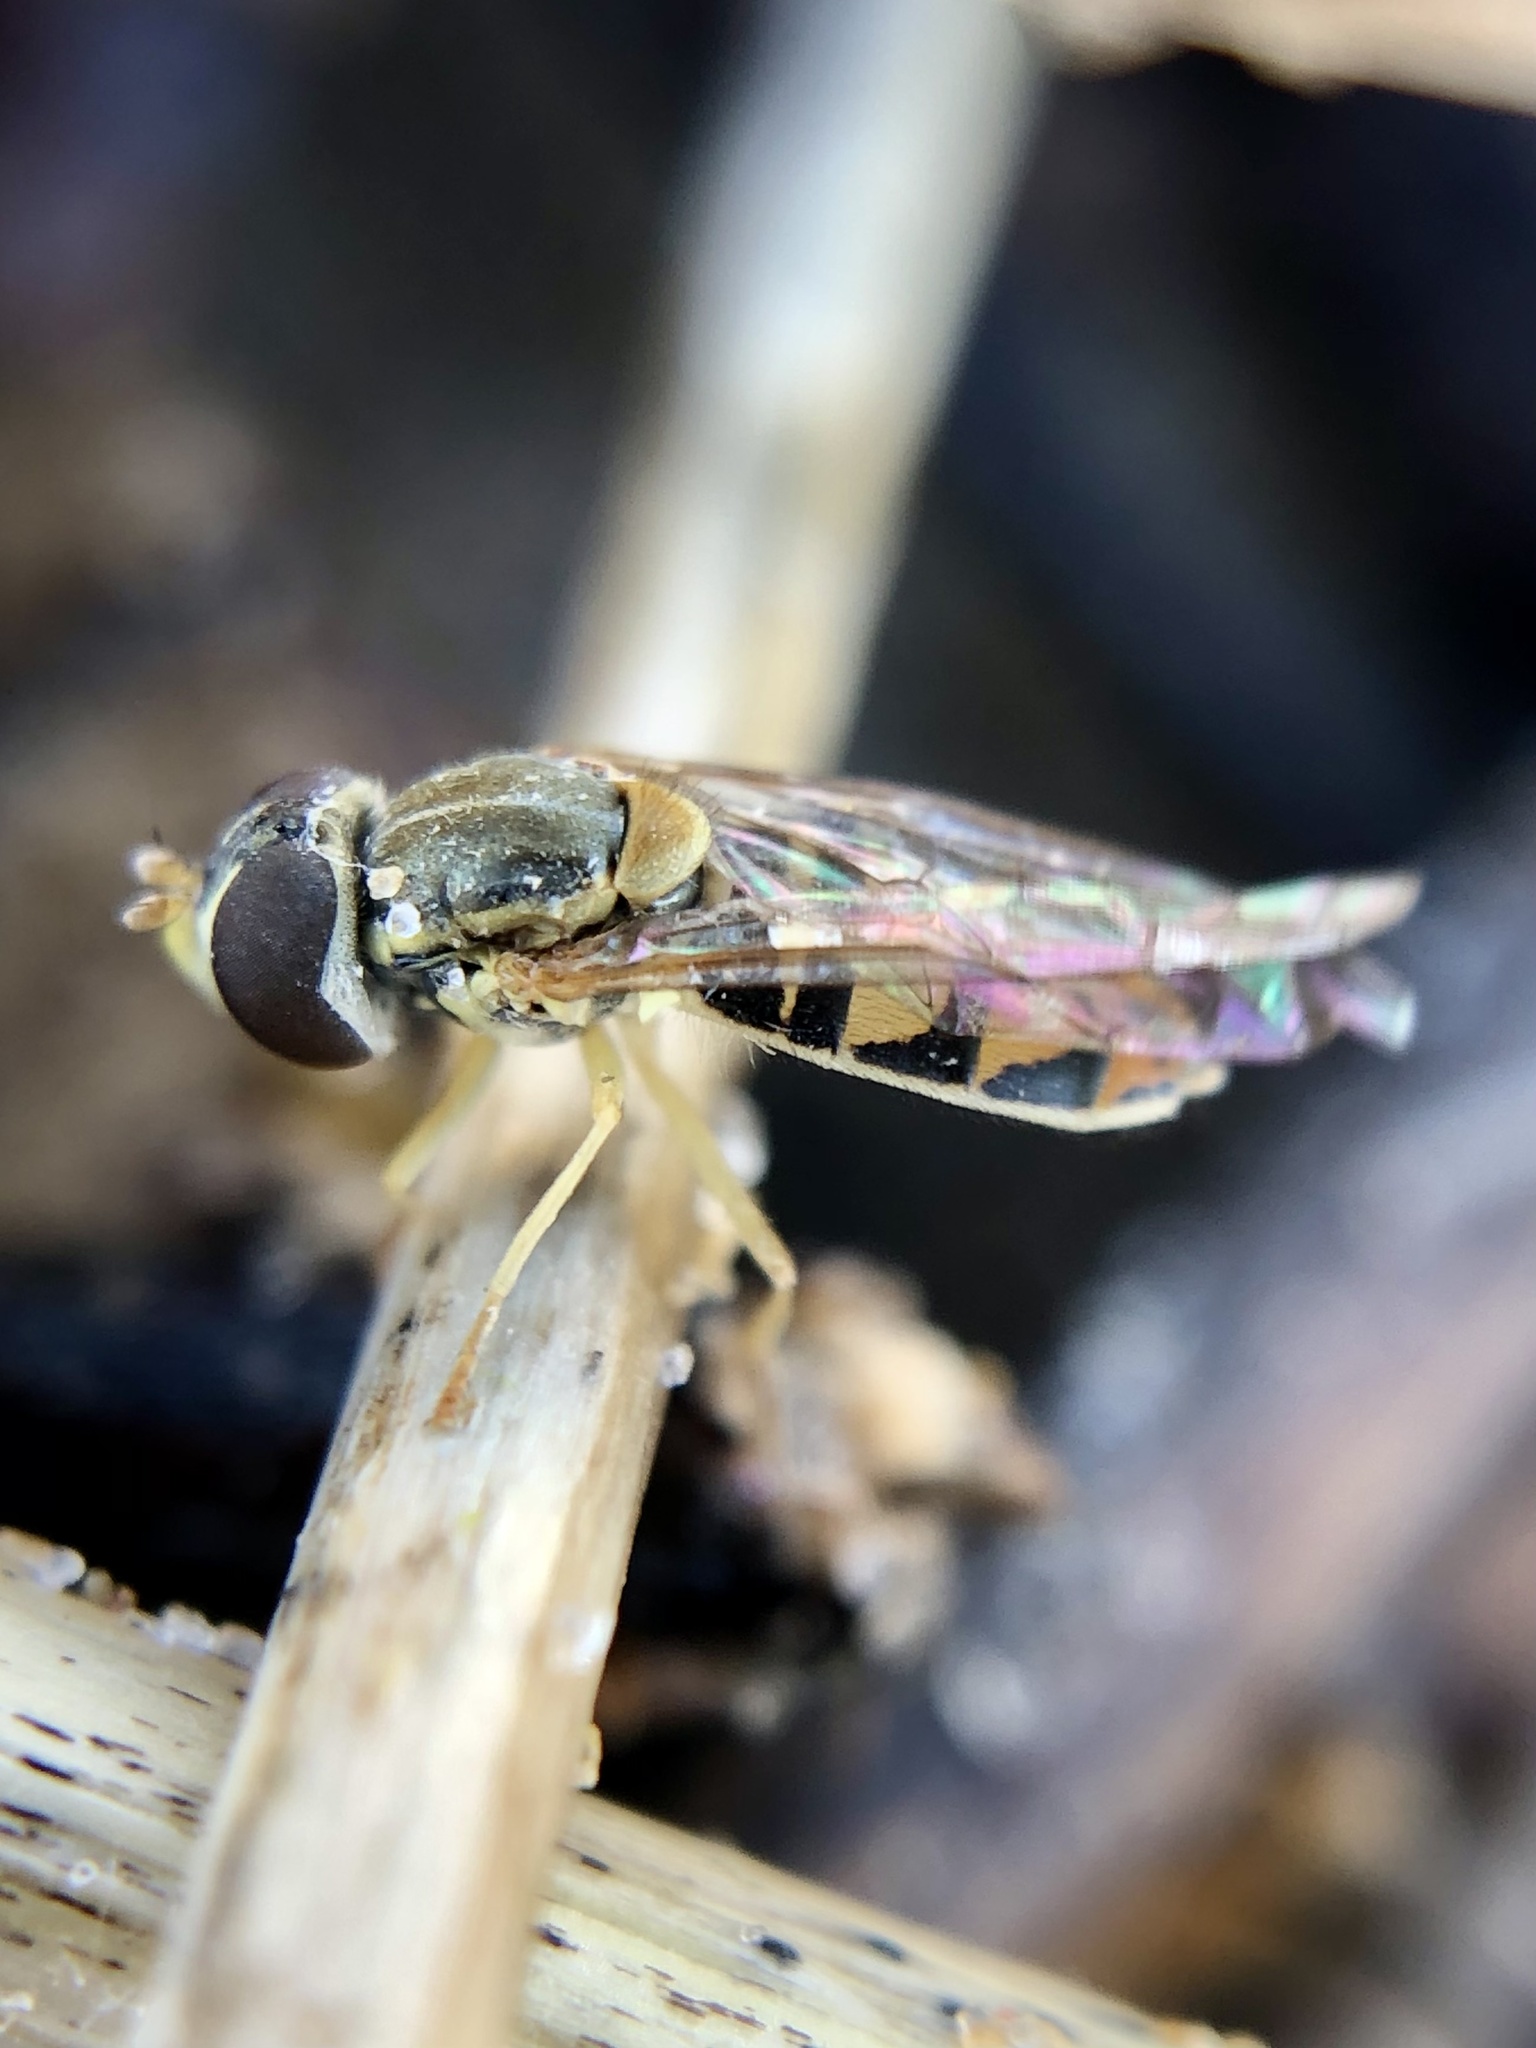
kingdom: Animalia
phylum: Arthropoda
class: Insecta
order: Diptera
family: Syrphidae
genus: Toxomerus
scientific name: Toxomerus marginatus
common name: Syrphid fly
